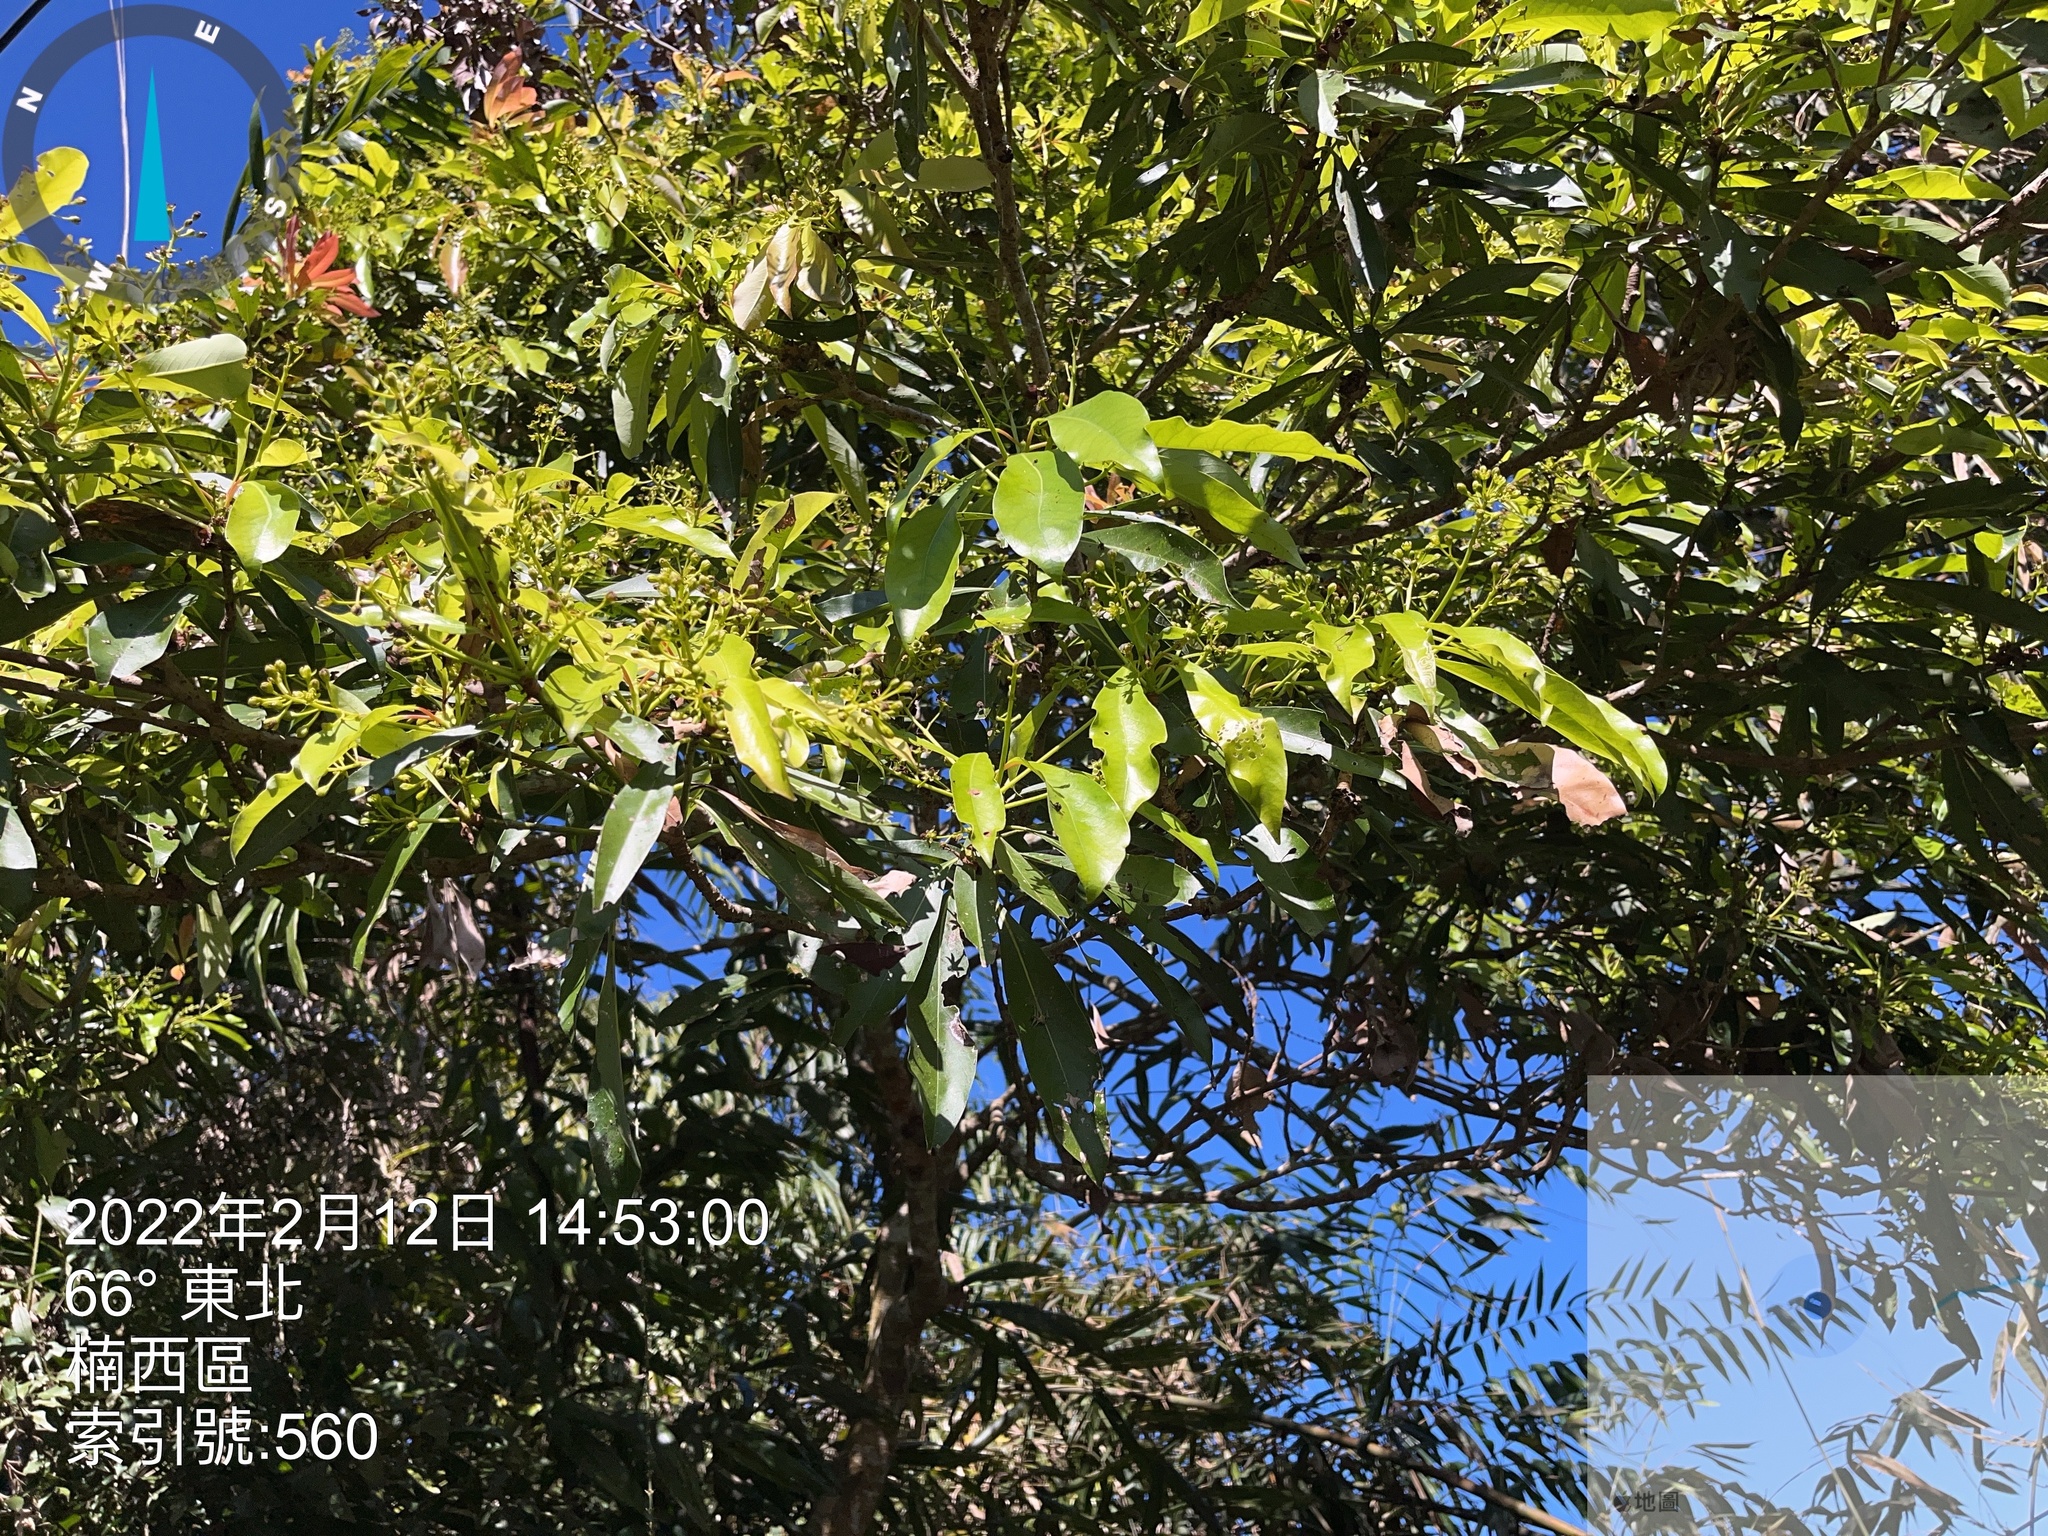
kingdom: Plantae
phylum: Tracheophyta
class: Magnoliopsida
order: Laurales
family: Lauraceae
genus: Machilus
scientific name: Machilus thunbergii
